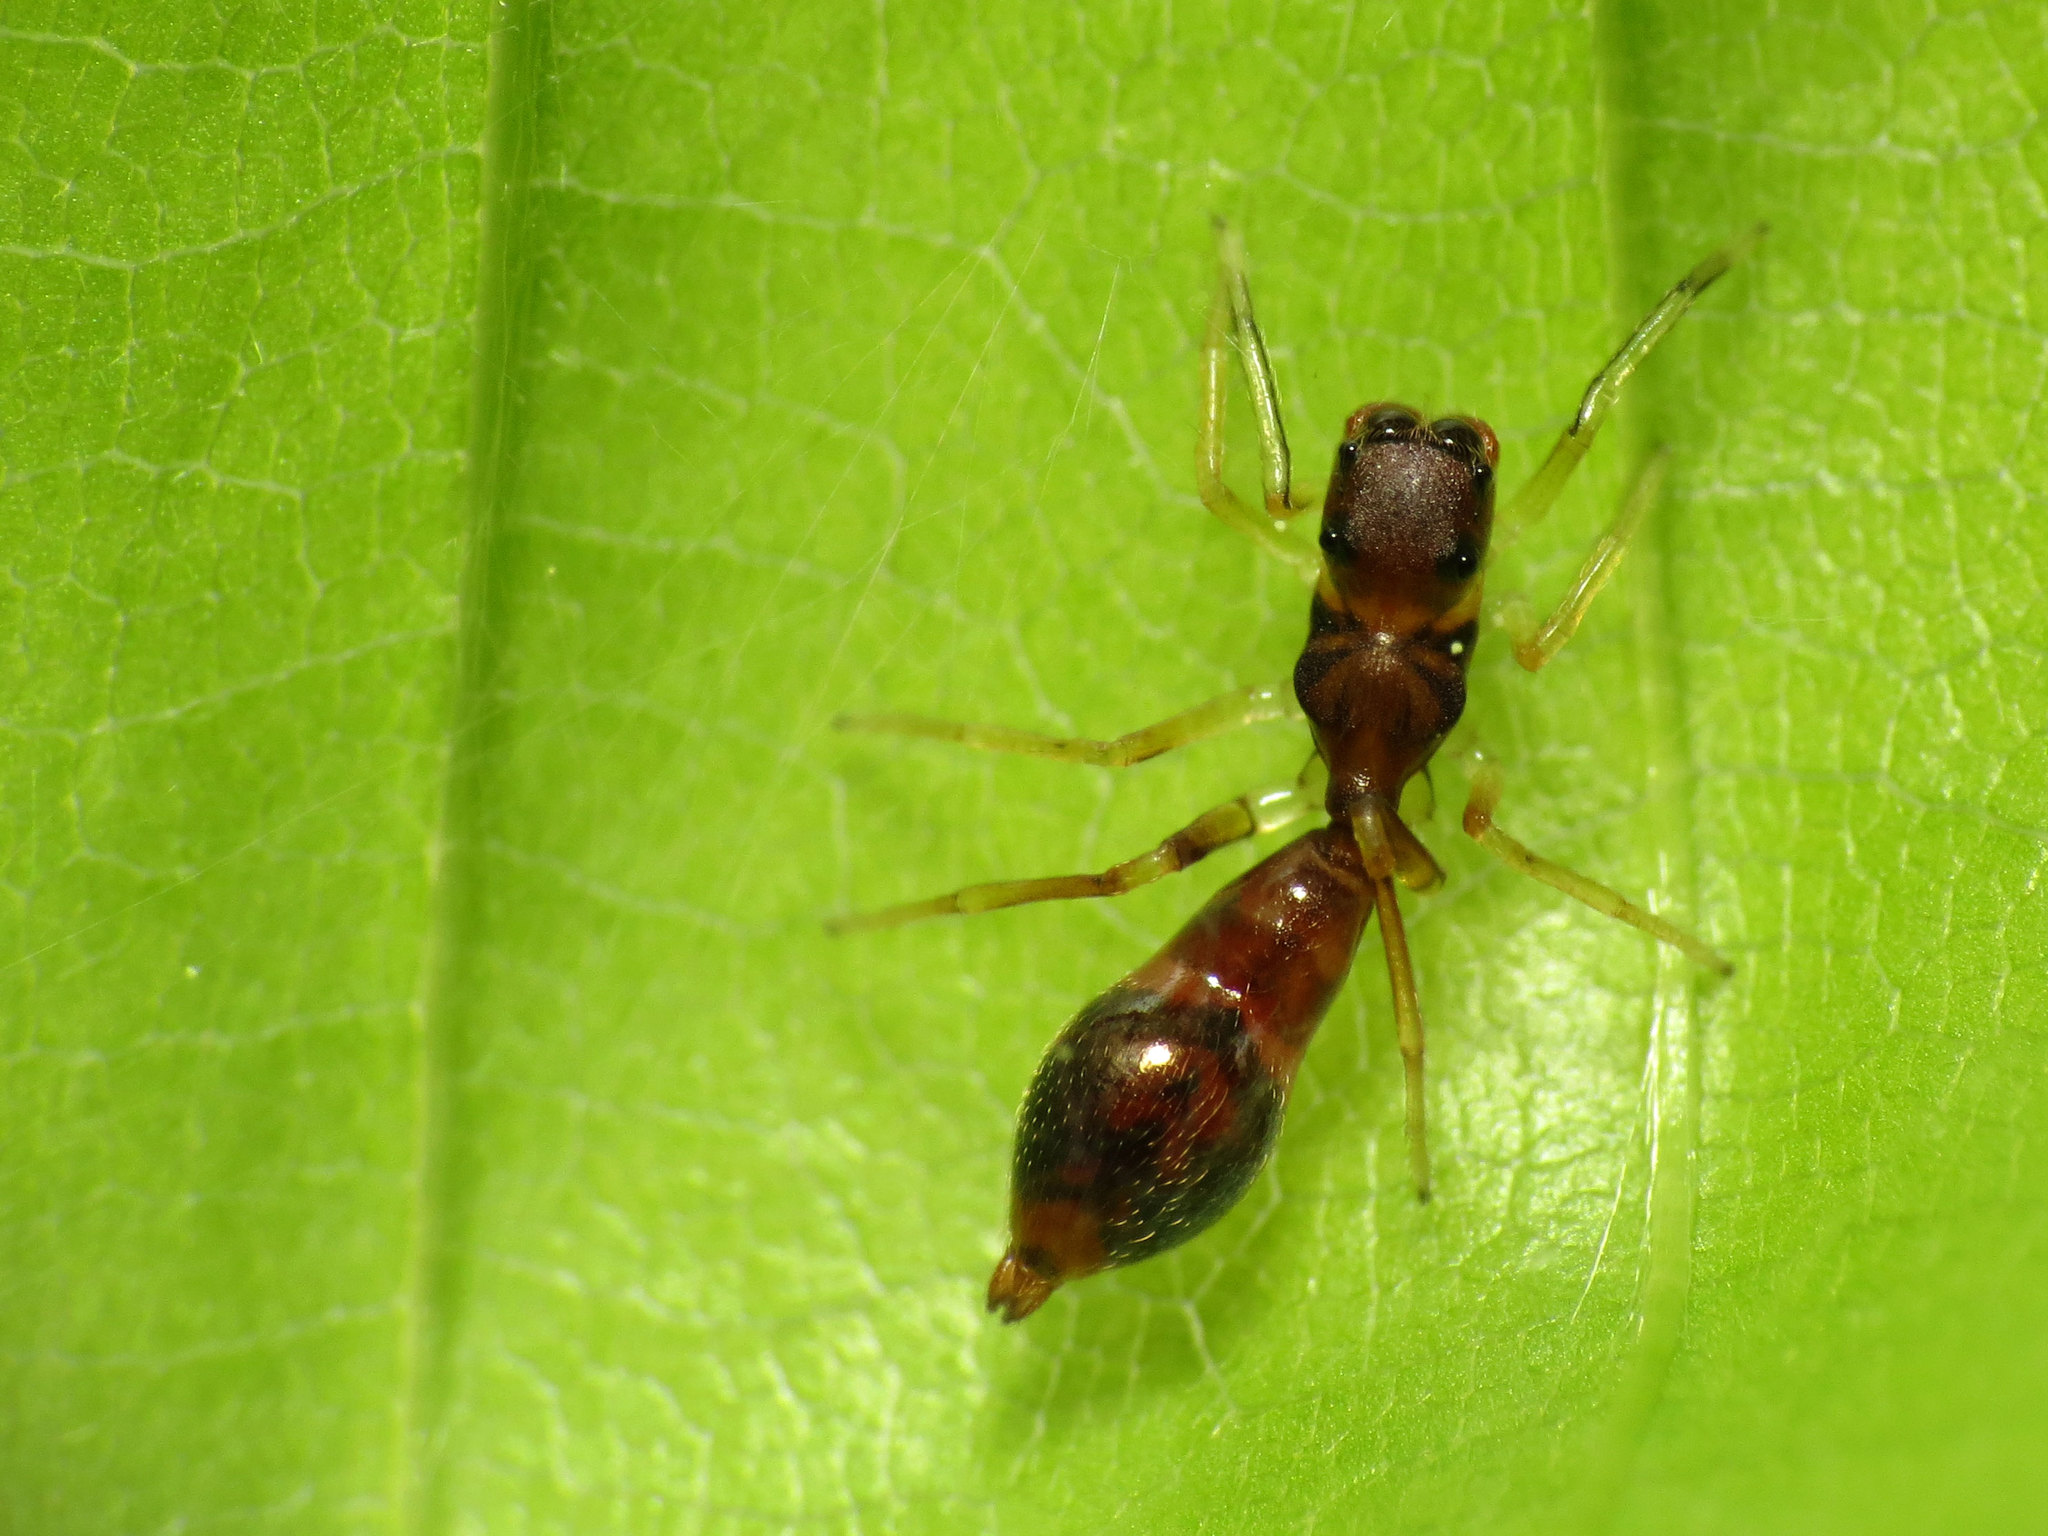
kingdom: Animalia
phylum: Arthropoda
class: Arachnida
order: Araneae
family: Salticidae
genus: Synemosyna
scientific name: Synemosyna formica
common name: Slender ant-mimic jumping spider
